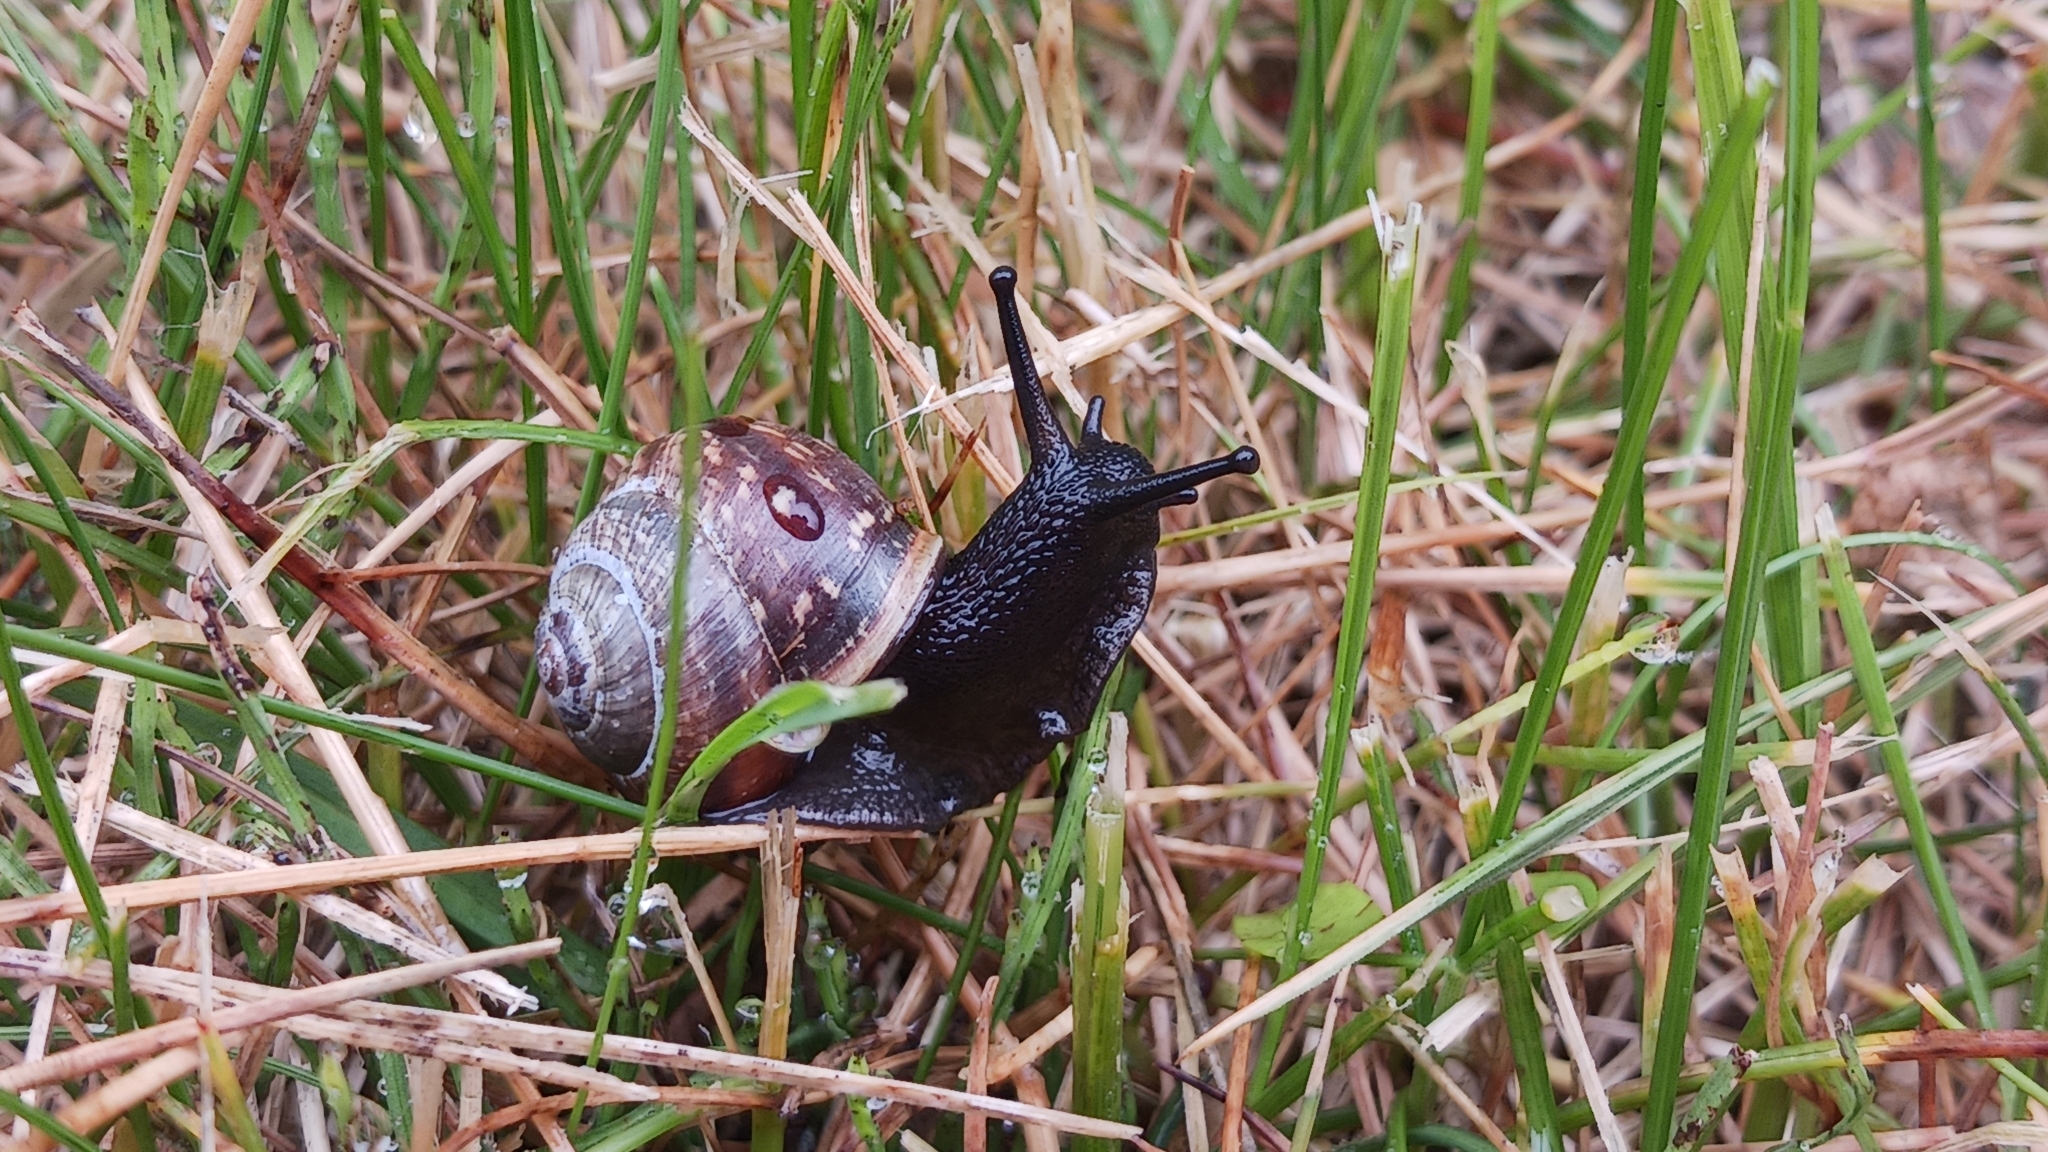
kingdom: Animalia
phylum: Mollusca
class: Gastropoda
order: Stylommatophora
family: Helicidae
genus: Arianta
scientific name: Arianta arbustorum
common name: Copse snail
